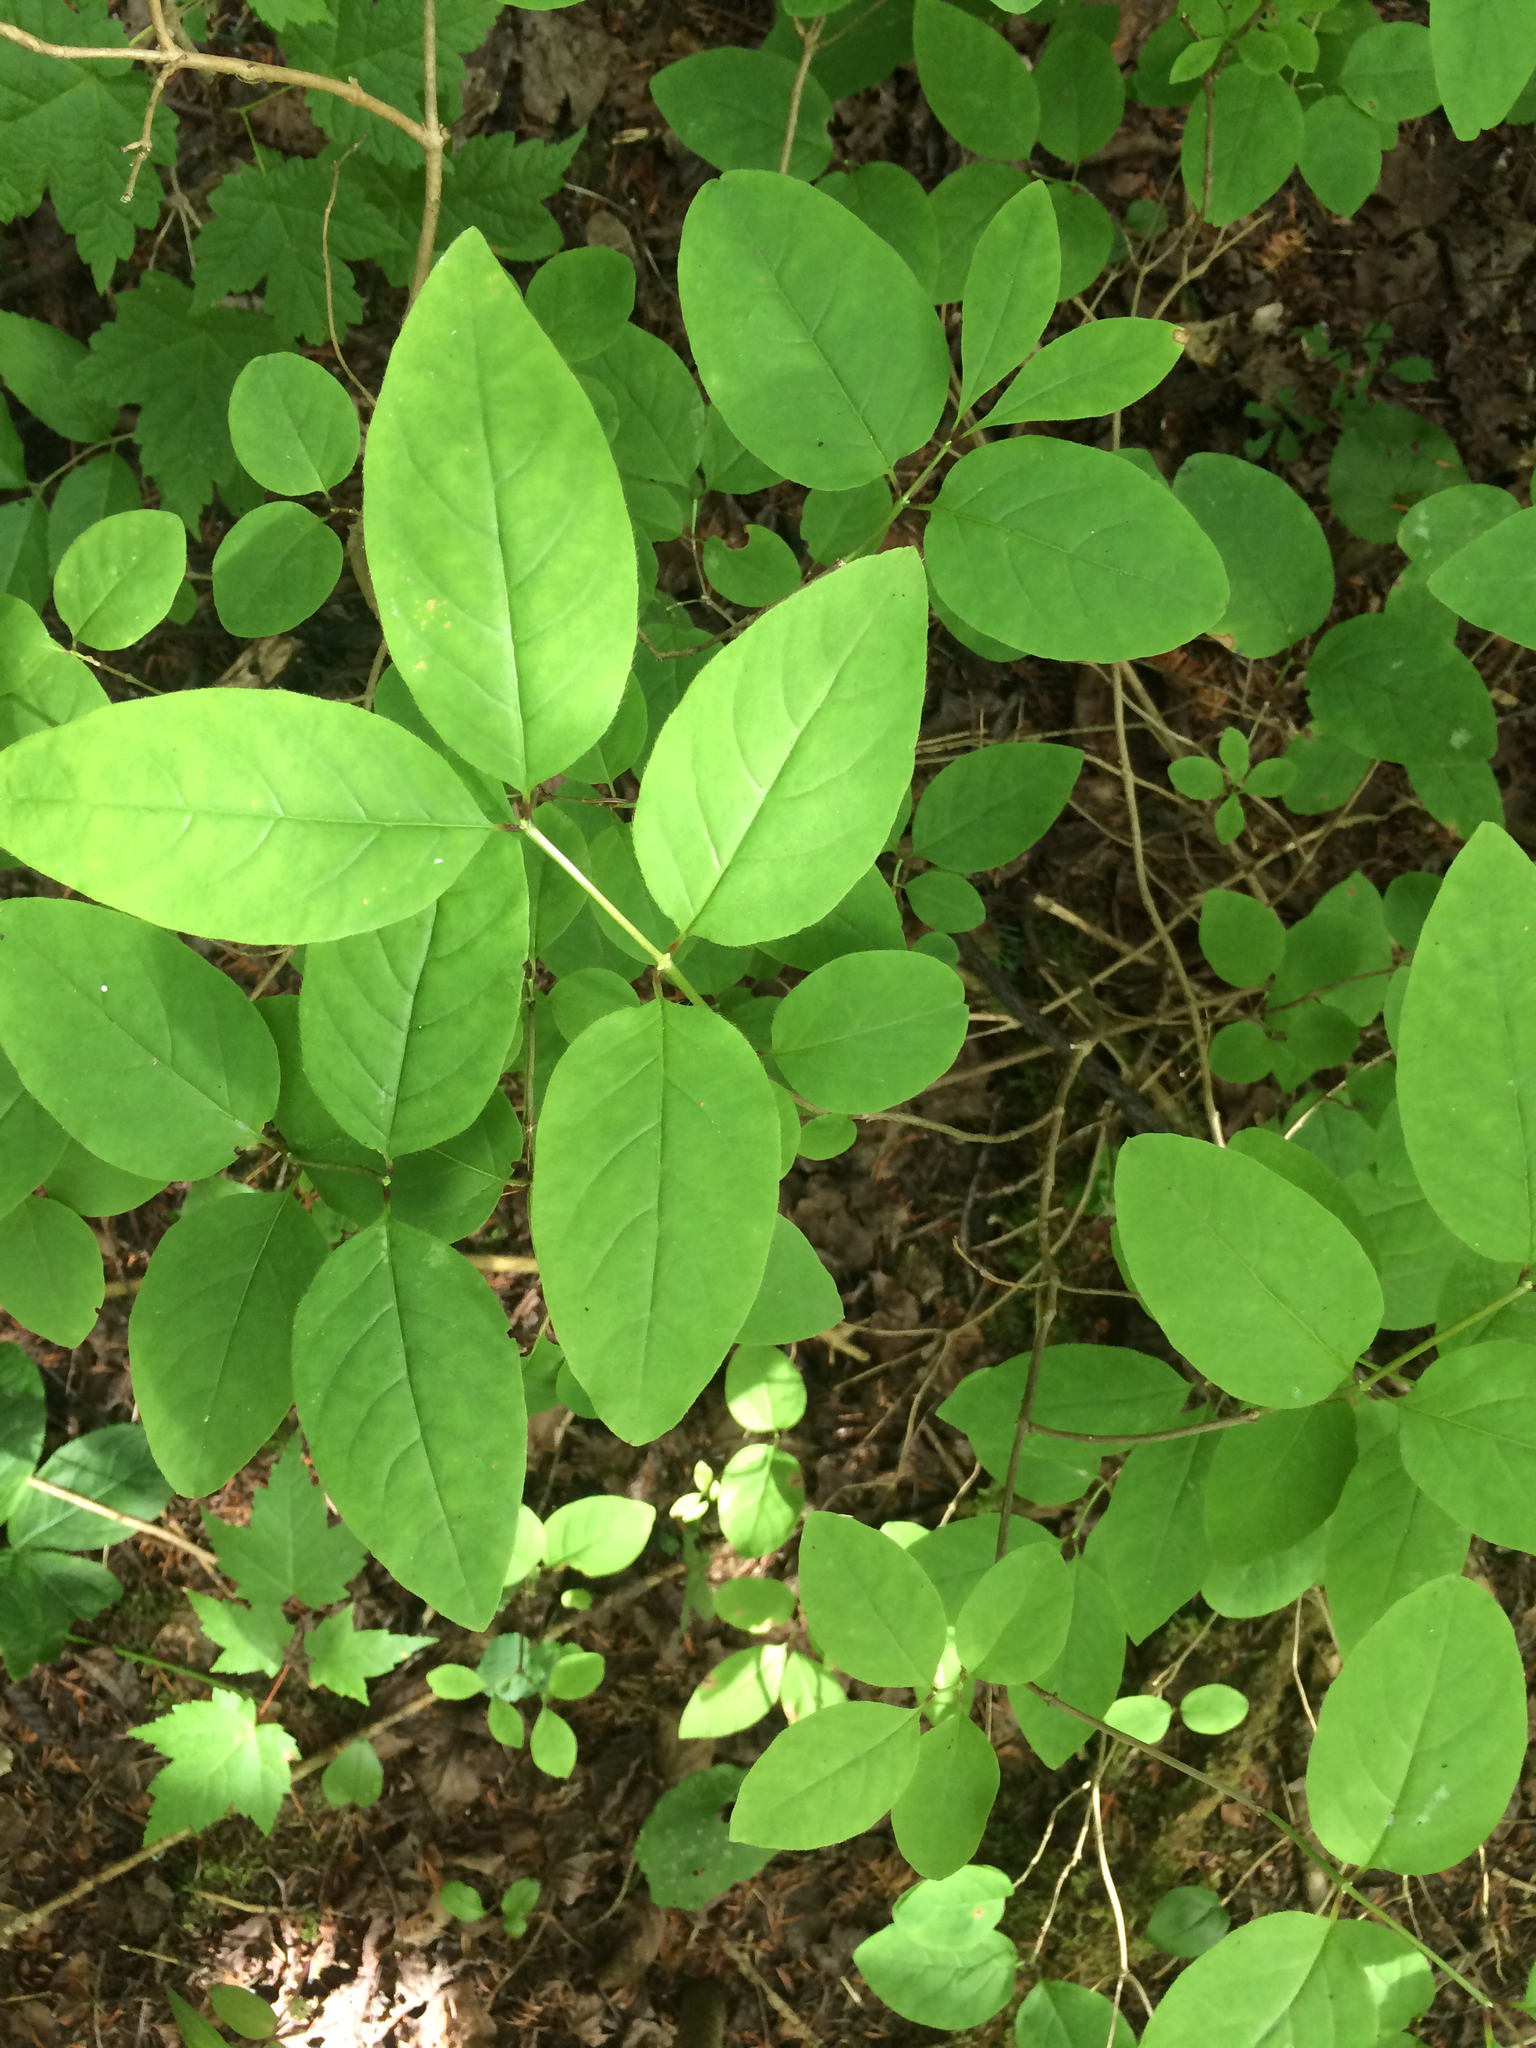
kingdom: Plantae
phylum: Tracheophyta
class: Magnoliopsida
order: Dipsacales
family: Caprifoliaceae
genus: Lonicera
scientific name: Lonicera canadensis
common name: American fly-honeysuckle
